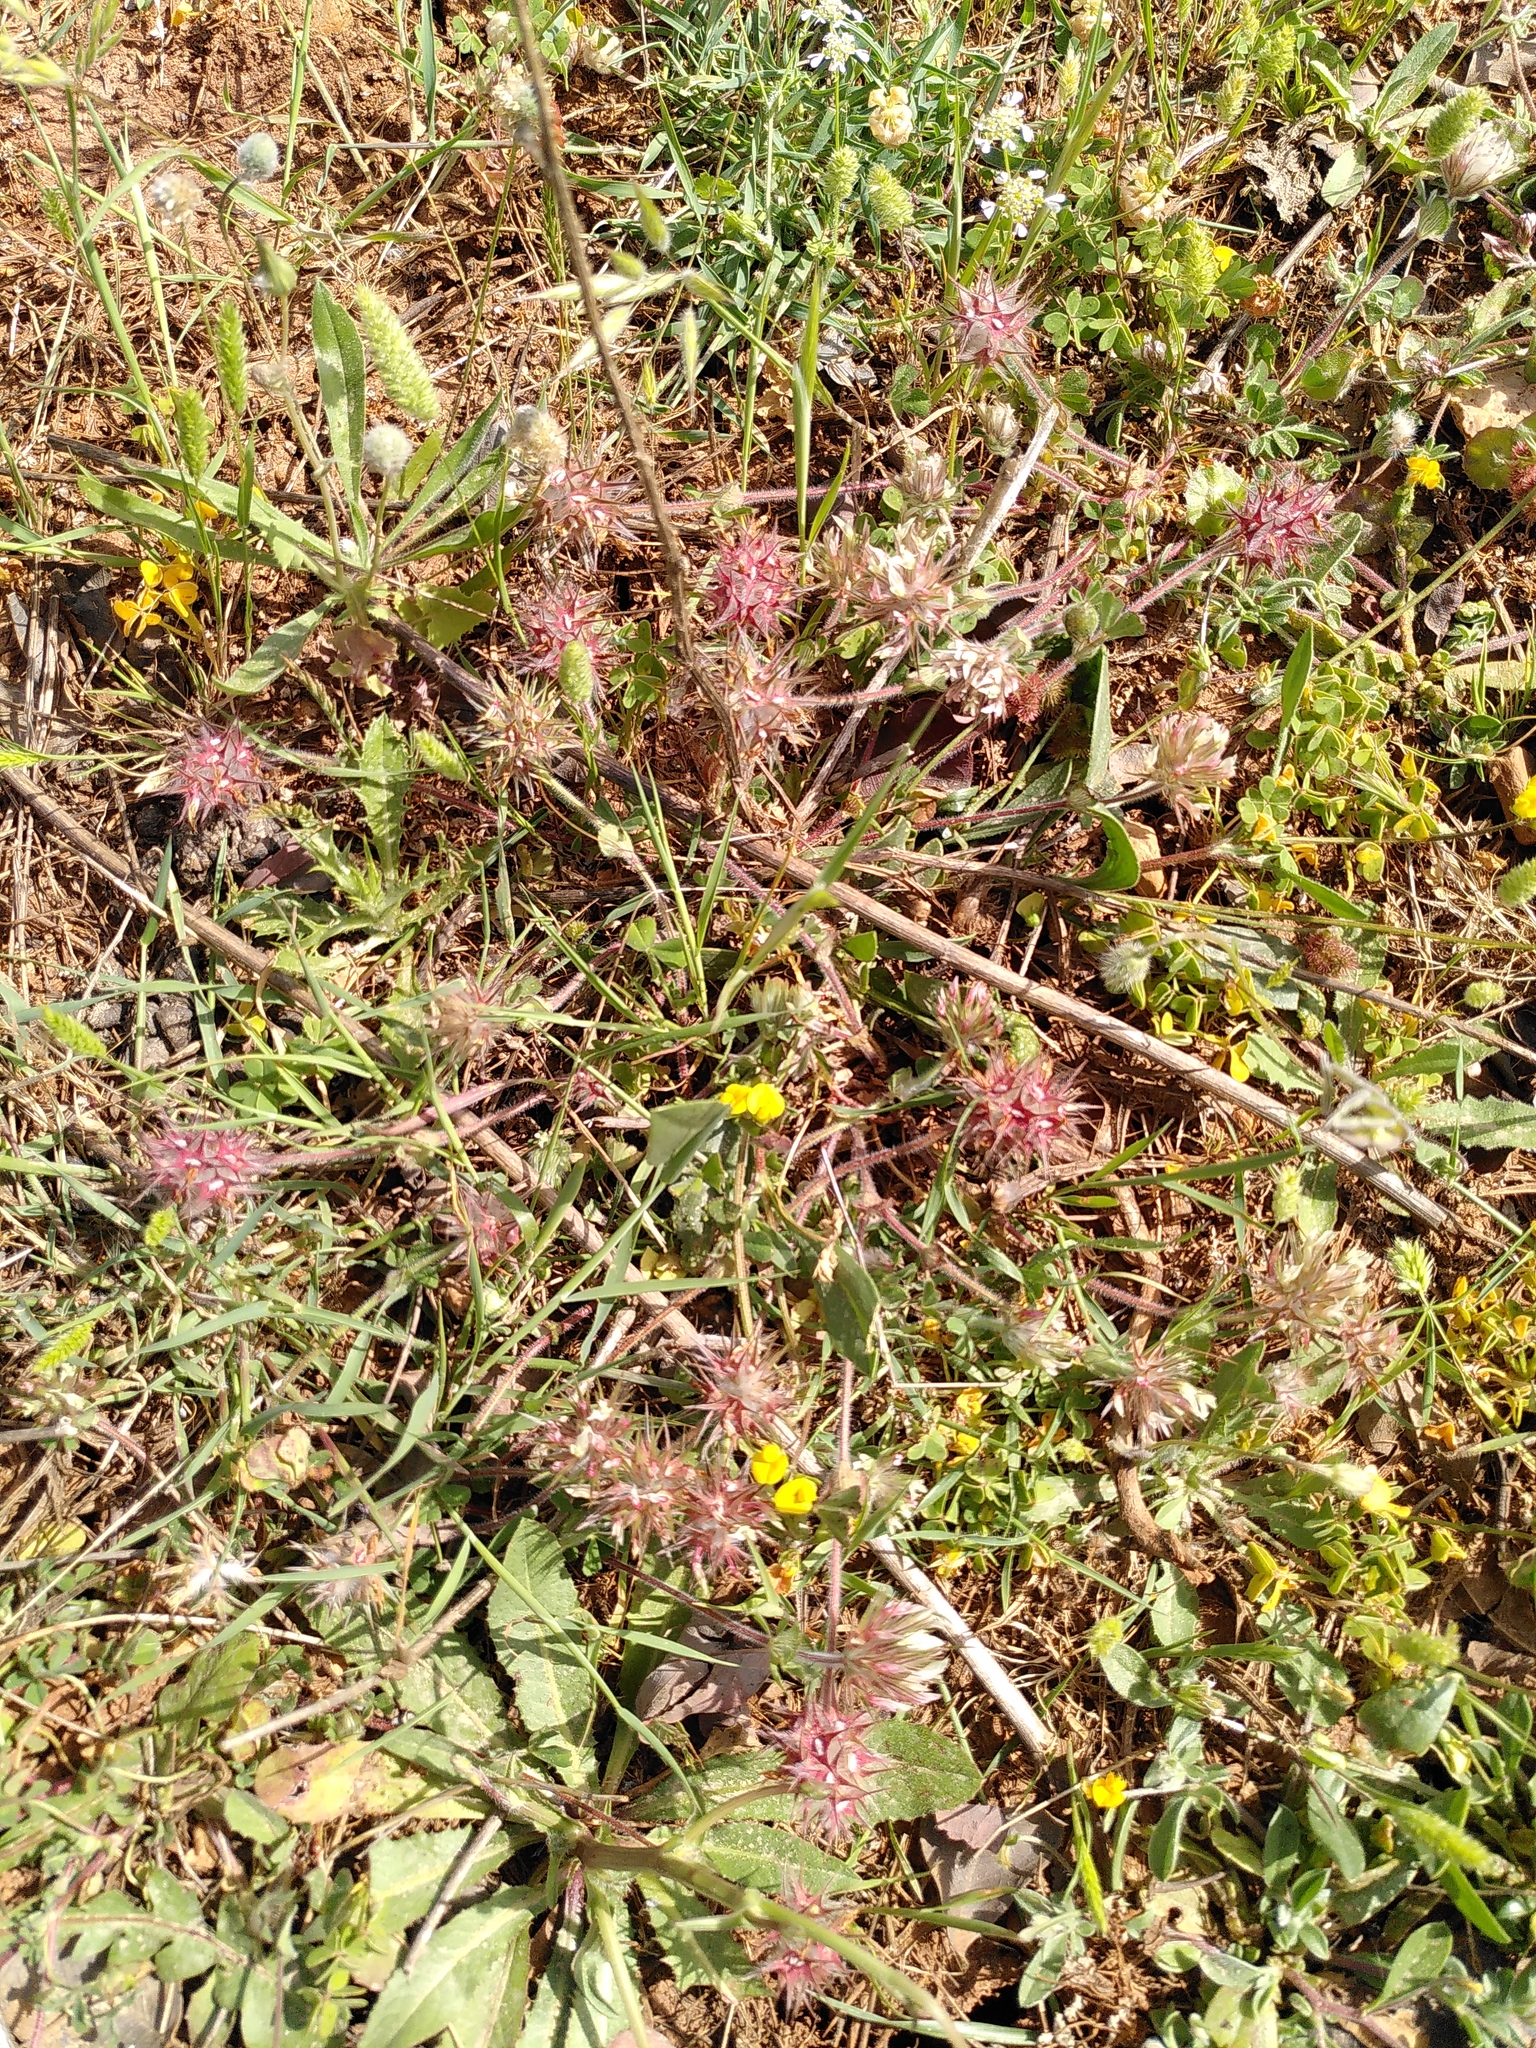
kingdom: Plantae
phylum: Tracheophyta
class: Magnoliopsida
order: Fabales
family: Fabaceae
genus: Trifolium
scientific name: Trifolium stellatum
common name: Starry clover
